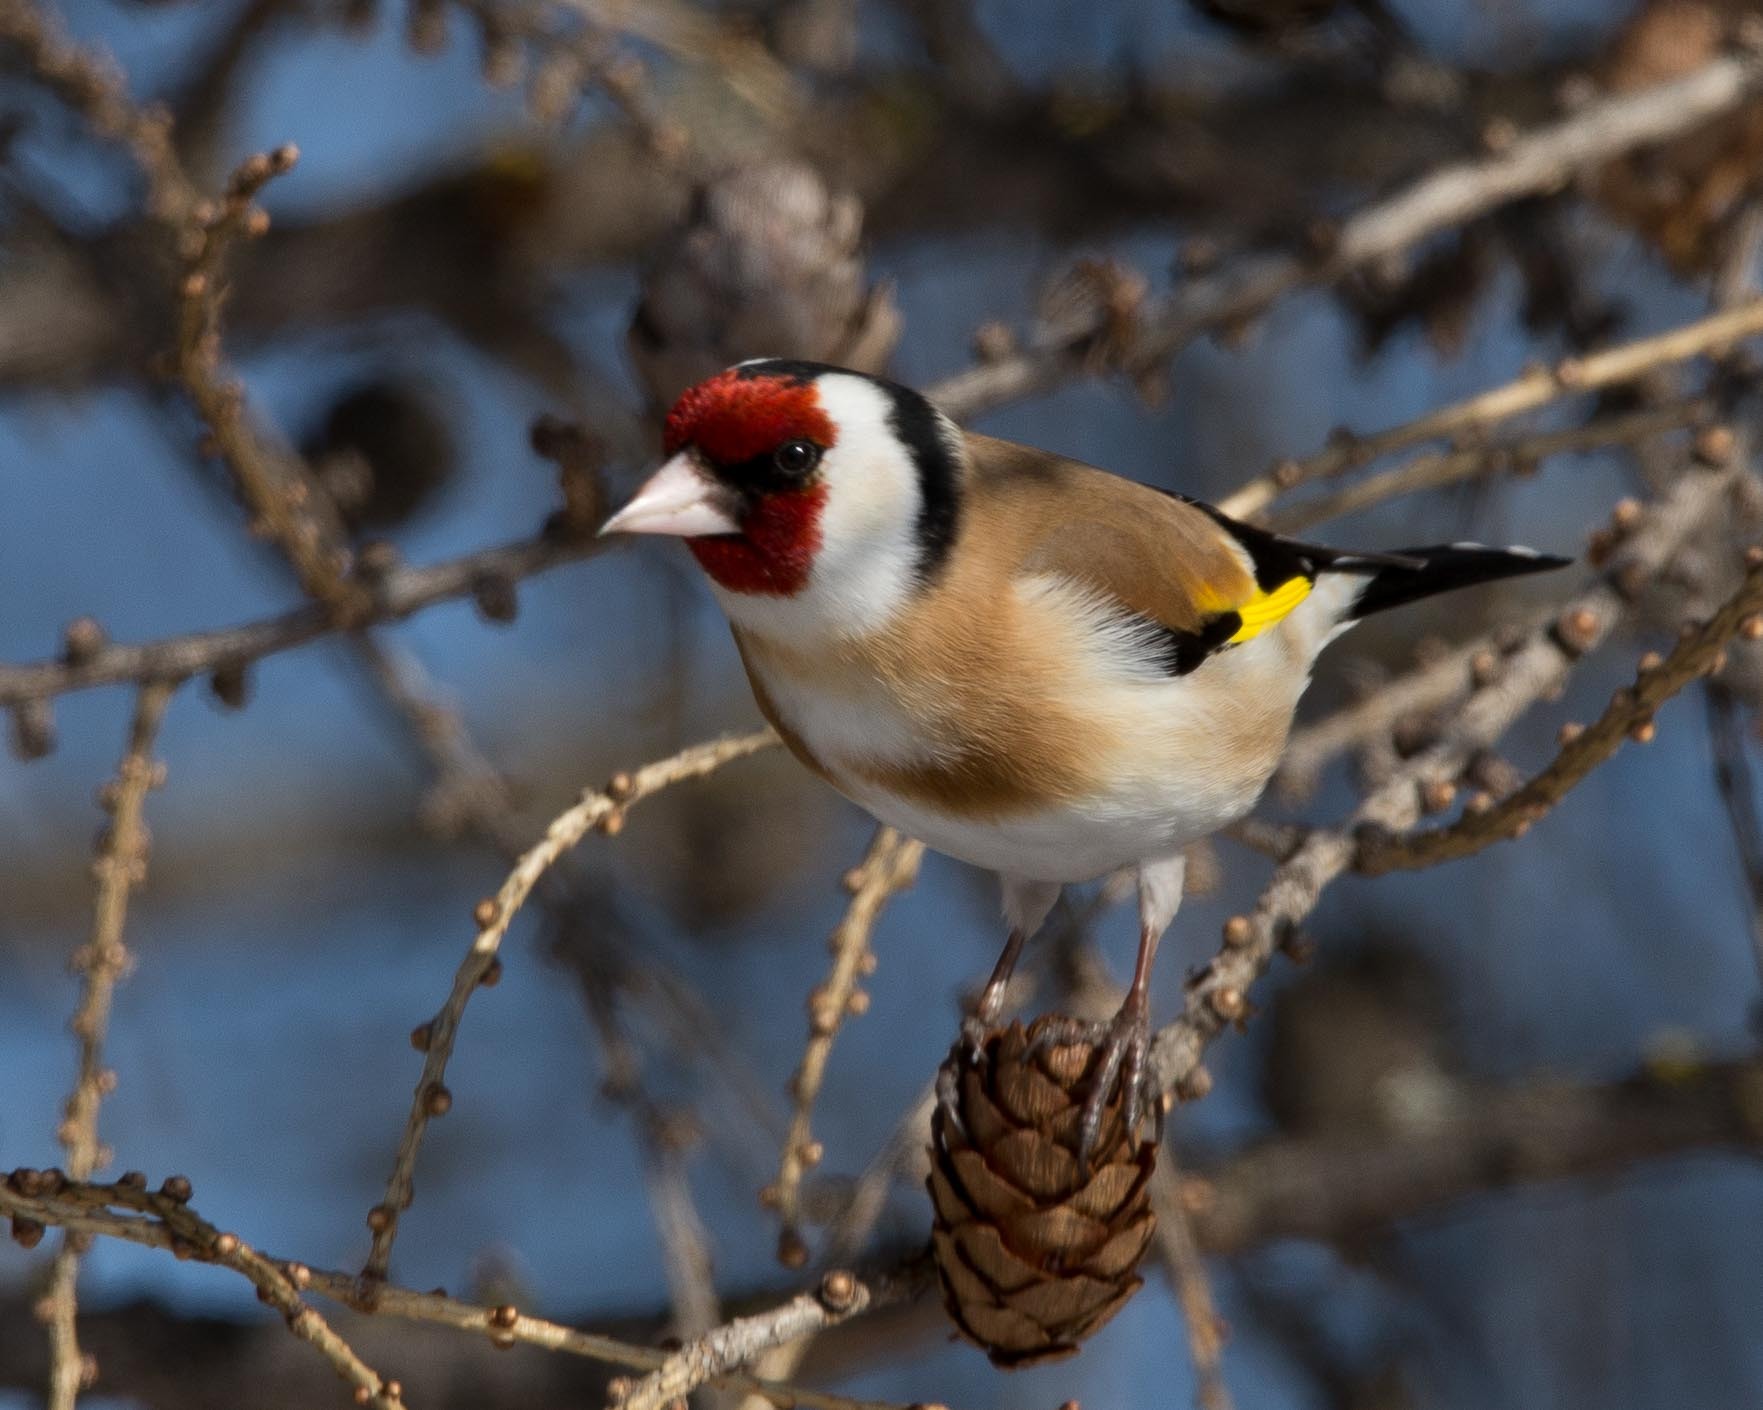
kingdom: Animalia
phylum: Chordata
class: Aves
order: Passeriformes
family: Fringillidae
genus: Carduelis
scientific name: Carduelis carduelis
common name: European goldfinch
